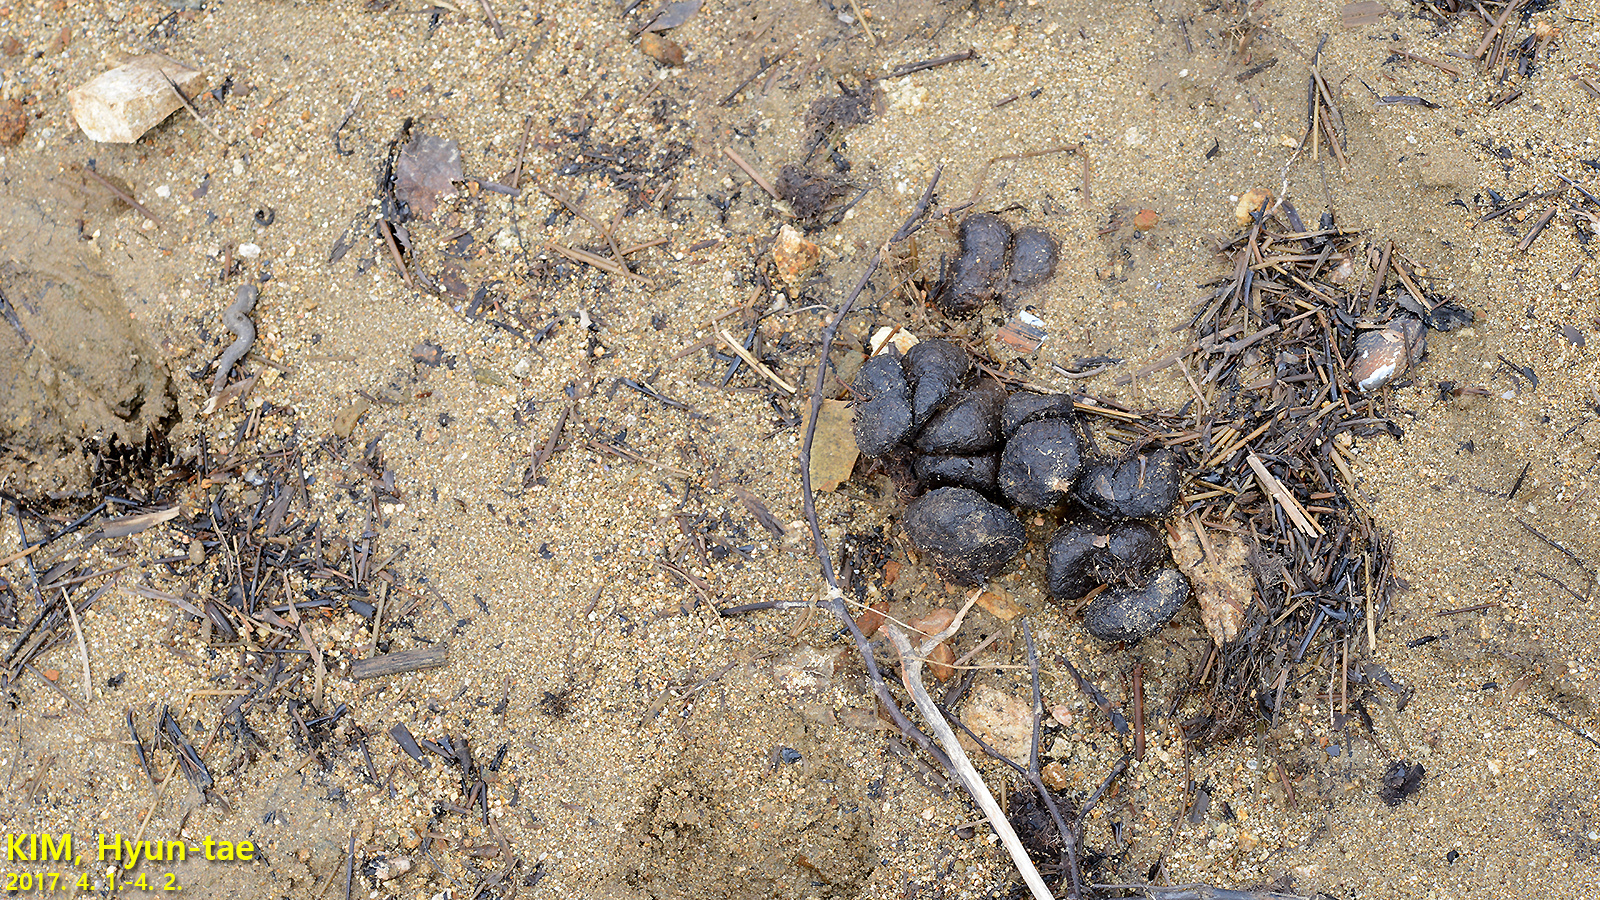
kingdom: Animalia
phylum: Chordata
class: Mammalia
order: Artiodactyla
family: Suidae
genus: Sus
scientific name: Sus scrofa
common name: Wild boar
